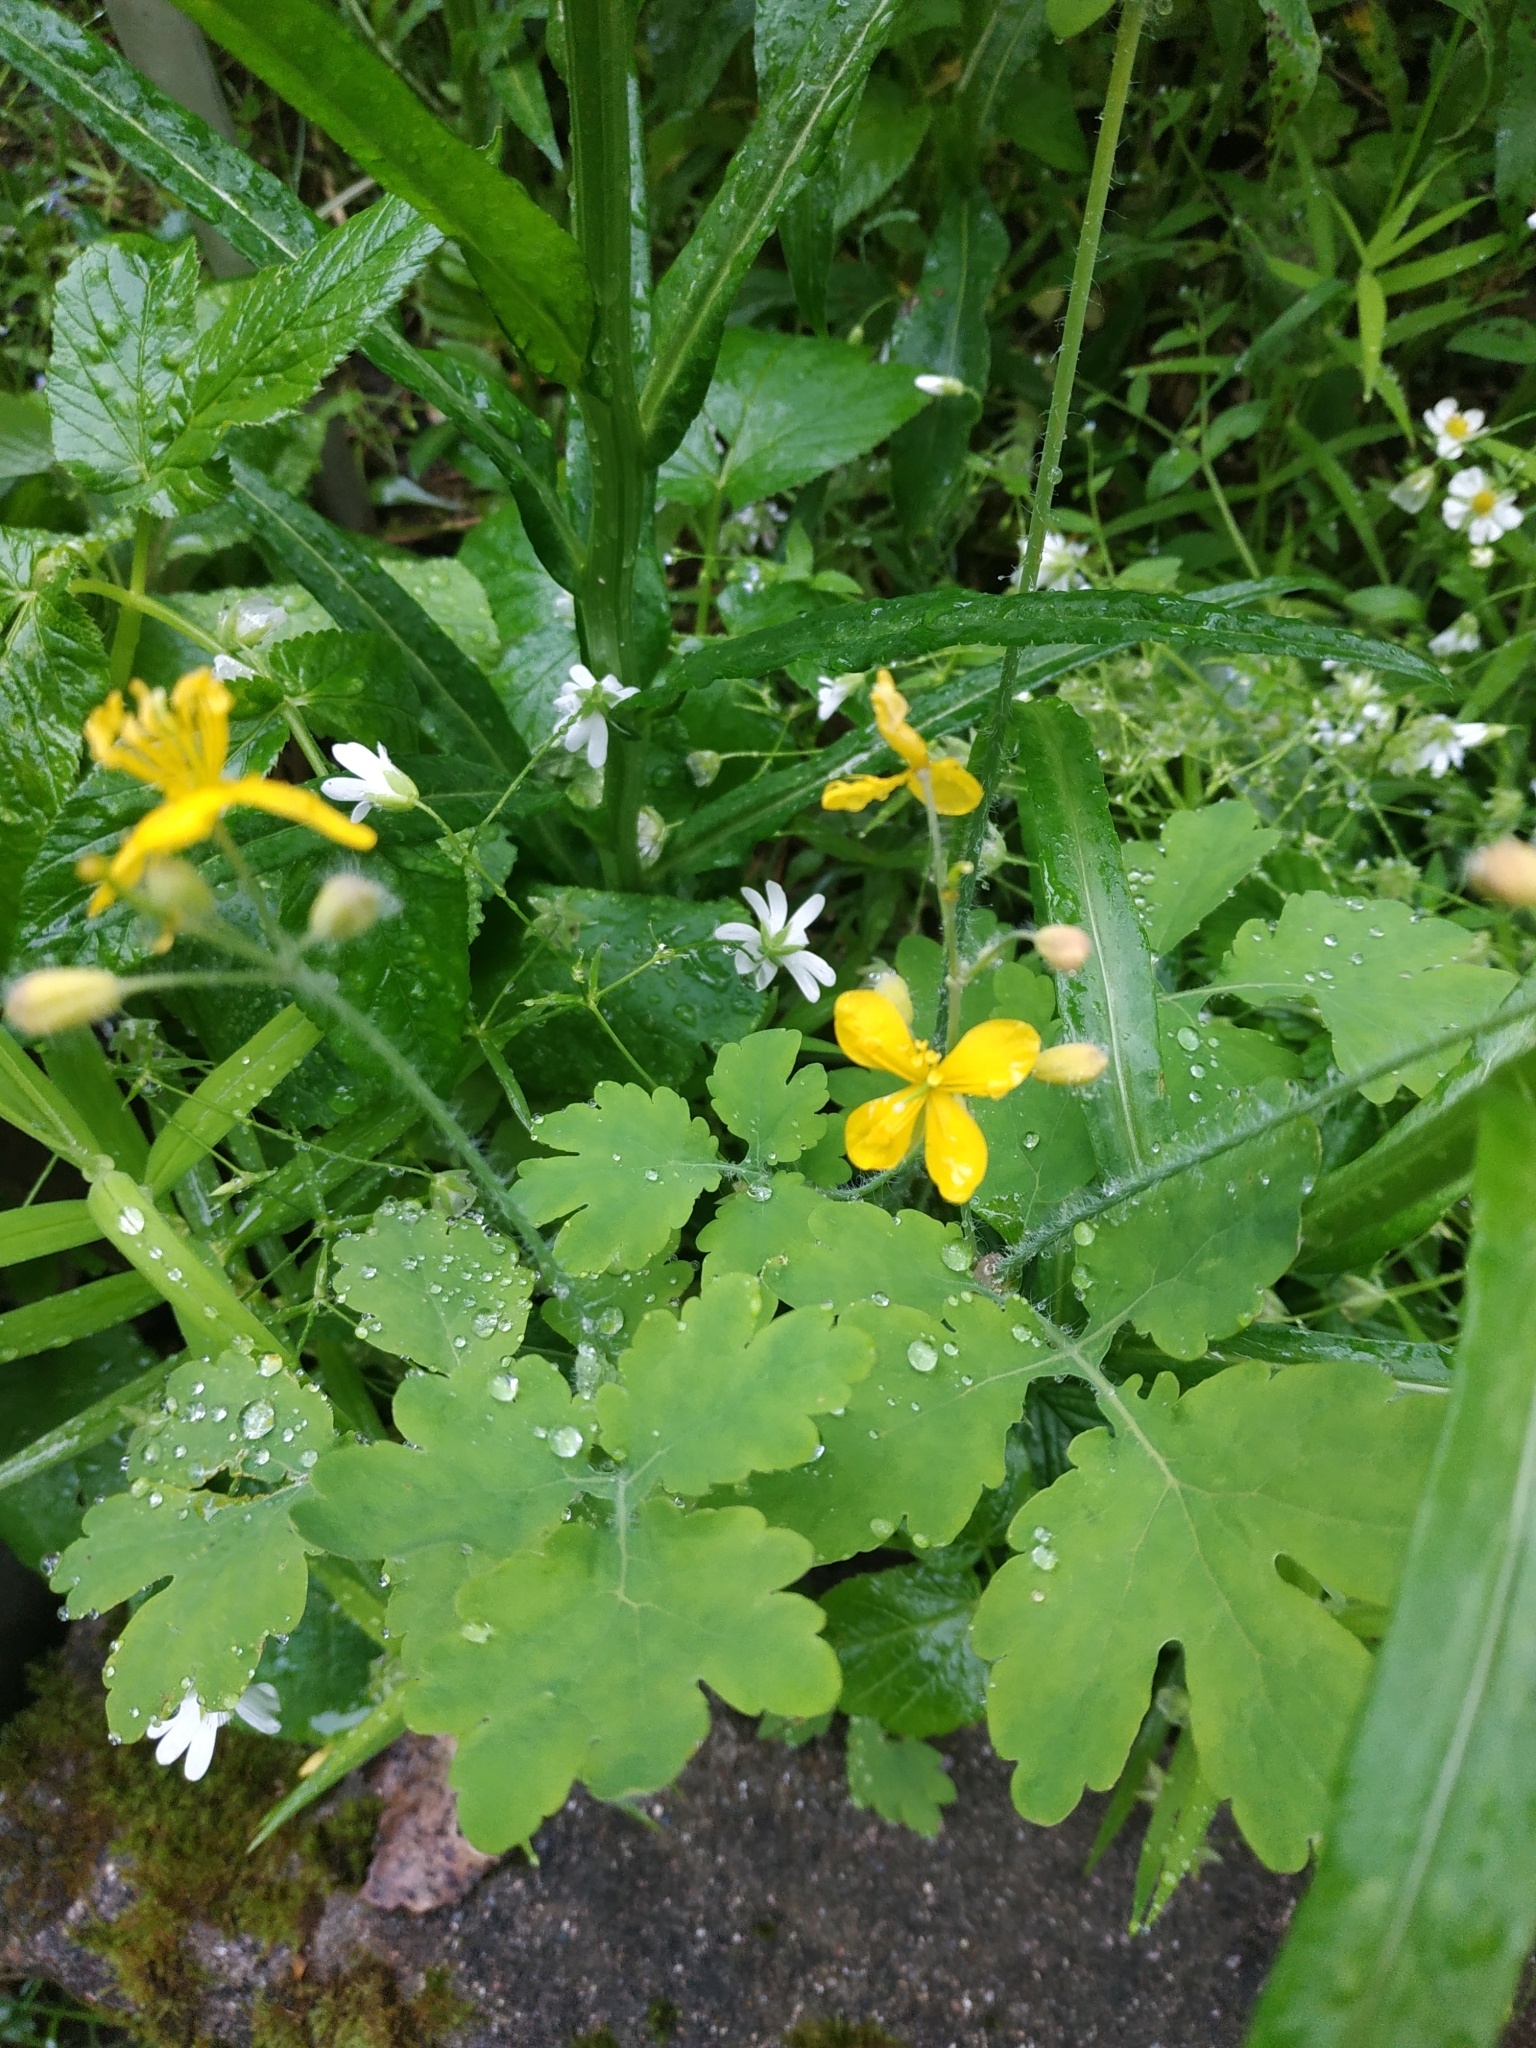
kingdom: Plantae
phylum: Tracheophyta
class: Magnoliopsida
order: Ranunculales
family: Papaveraceae
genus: Chelidonium
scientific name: Chelidonium majus
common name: Greater celandine
